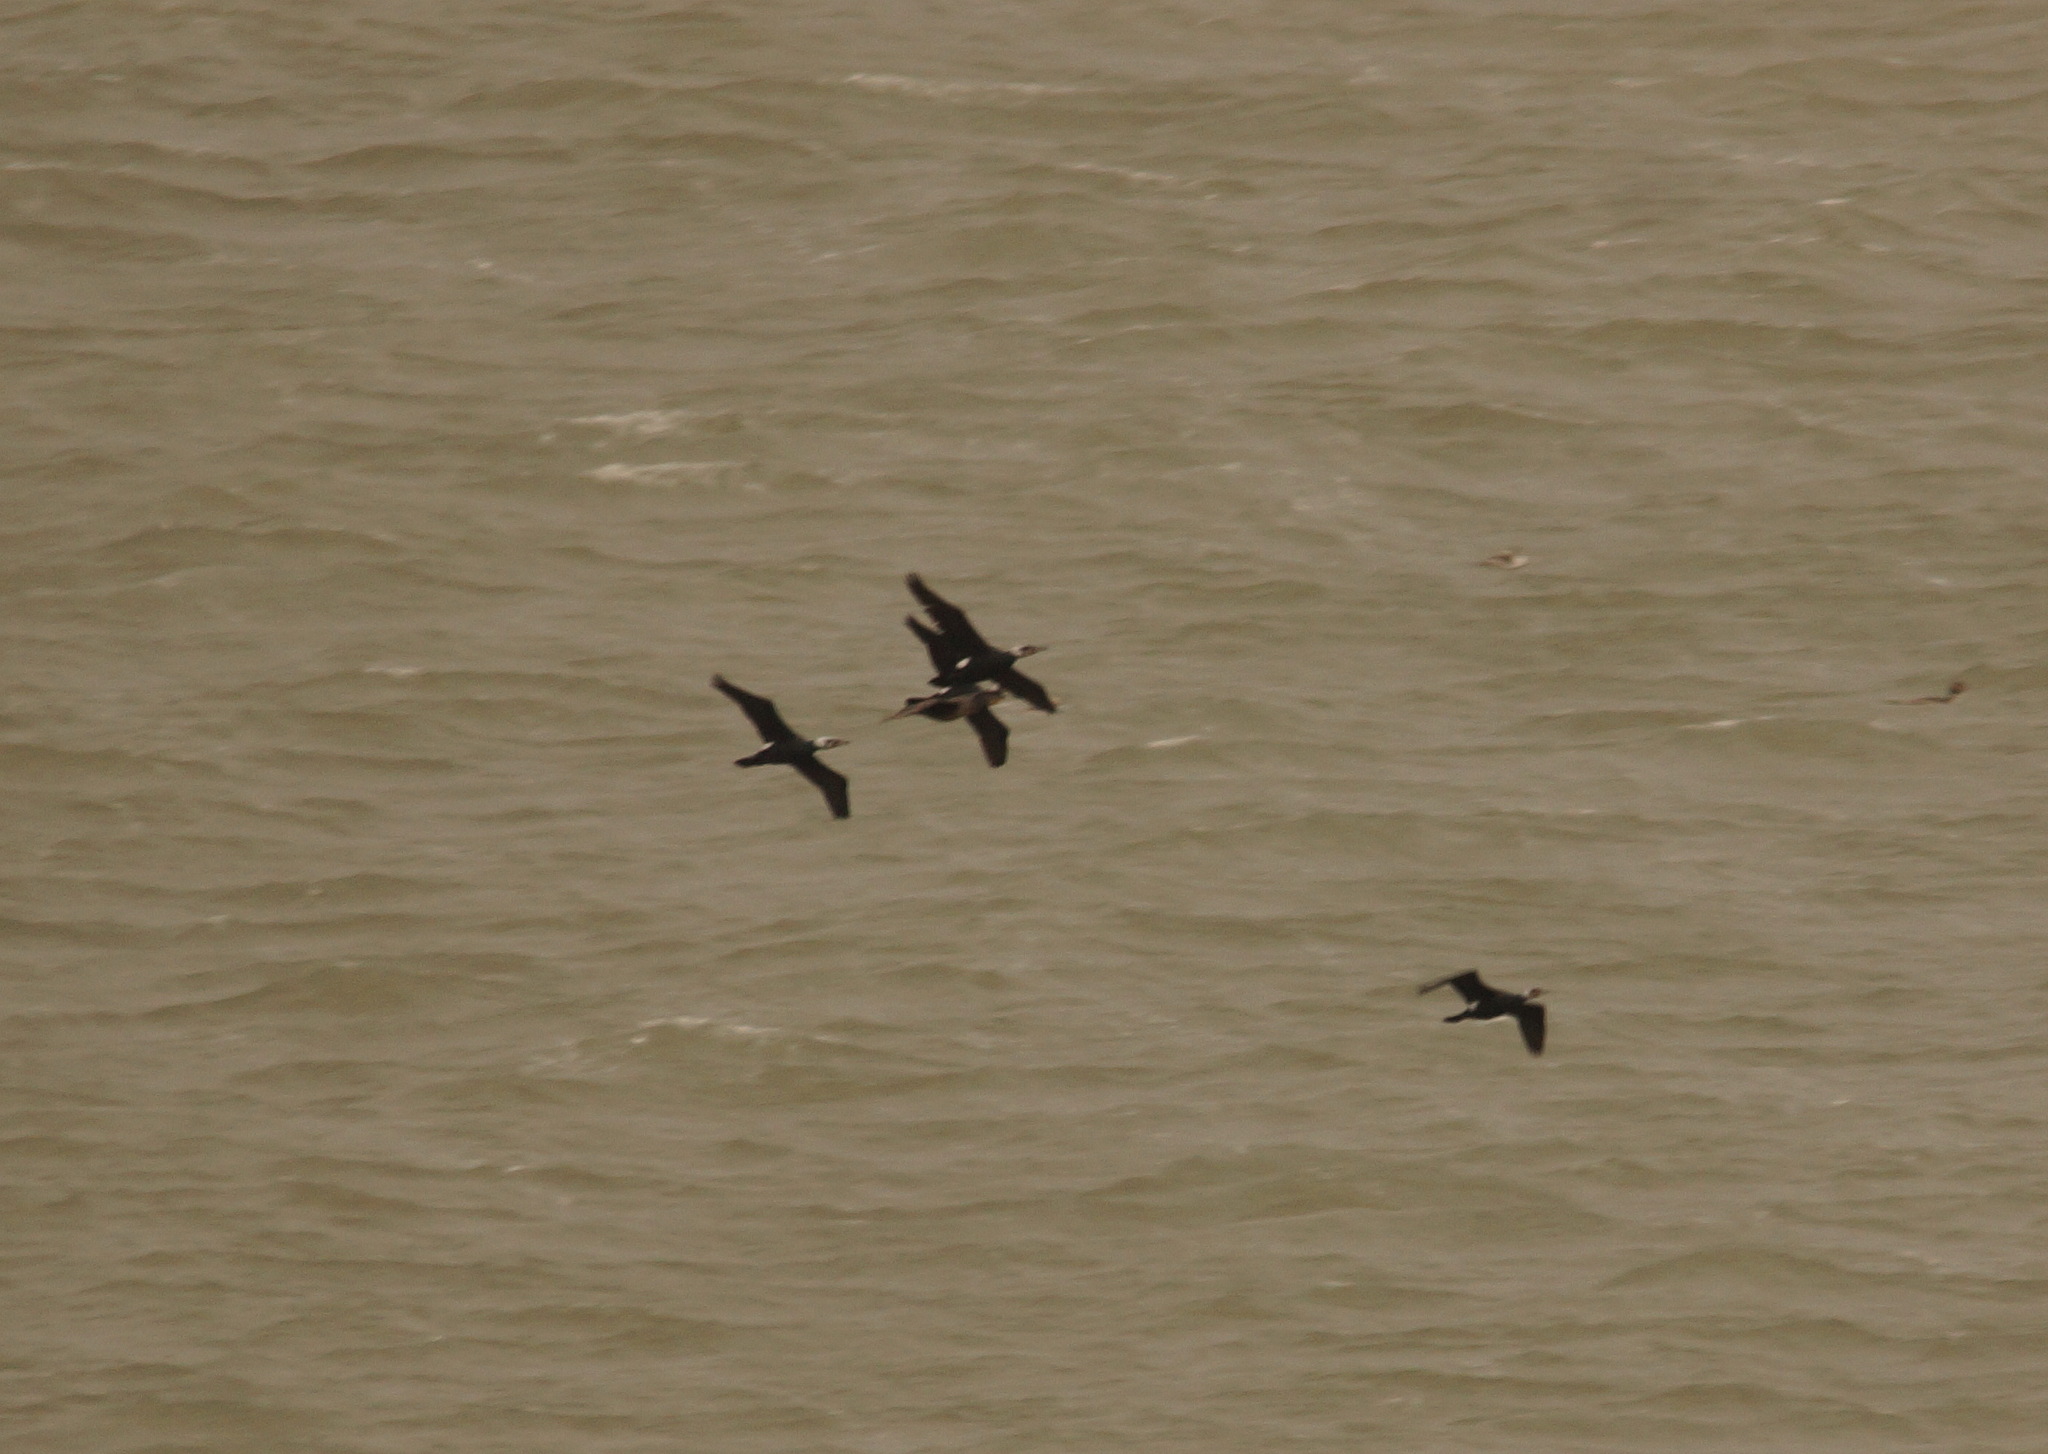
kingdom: Animalia
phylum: Chordata
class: Aves
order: Suliformes
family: Phalacrocoracidae
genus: Phalacrocorax
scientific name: Phalacrocorax carbo
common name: Great cormorant
